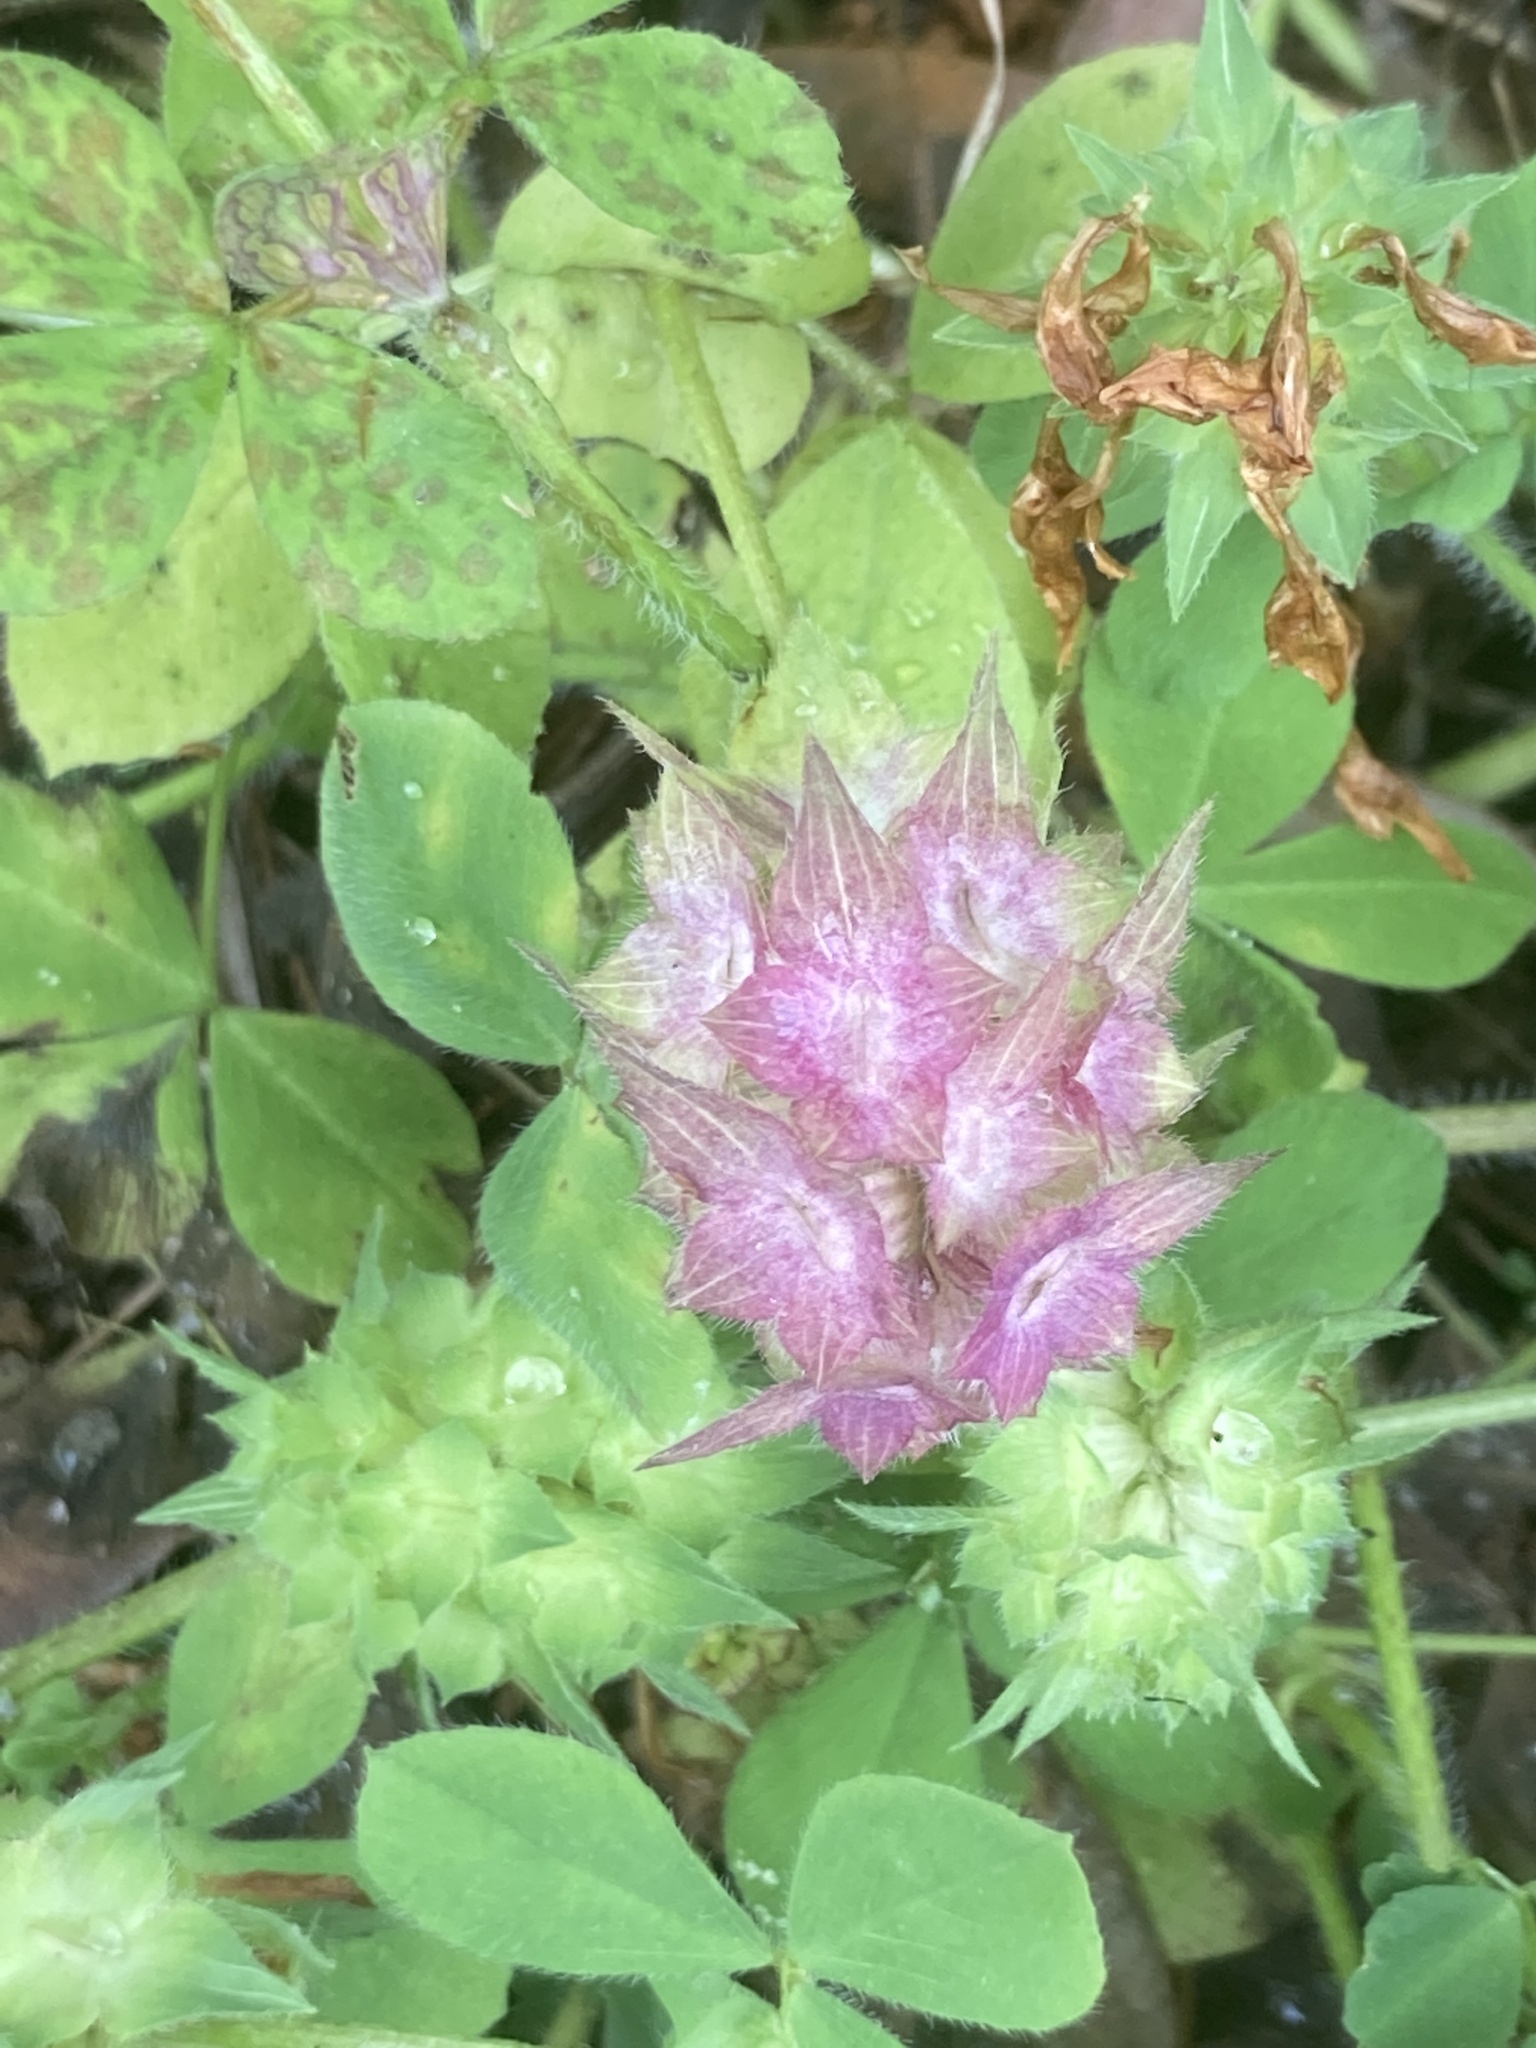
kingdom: Plantae
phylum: Tracheophyta
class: Magnoliopsida
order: Fabales
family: Fabaceae
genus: Trifolium
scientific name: Trifolium clypeatum
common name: Shield clover
